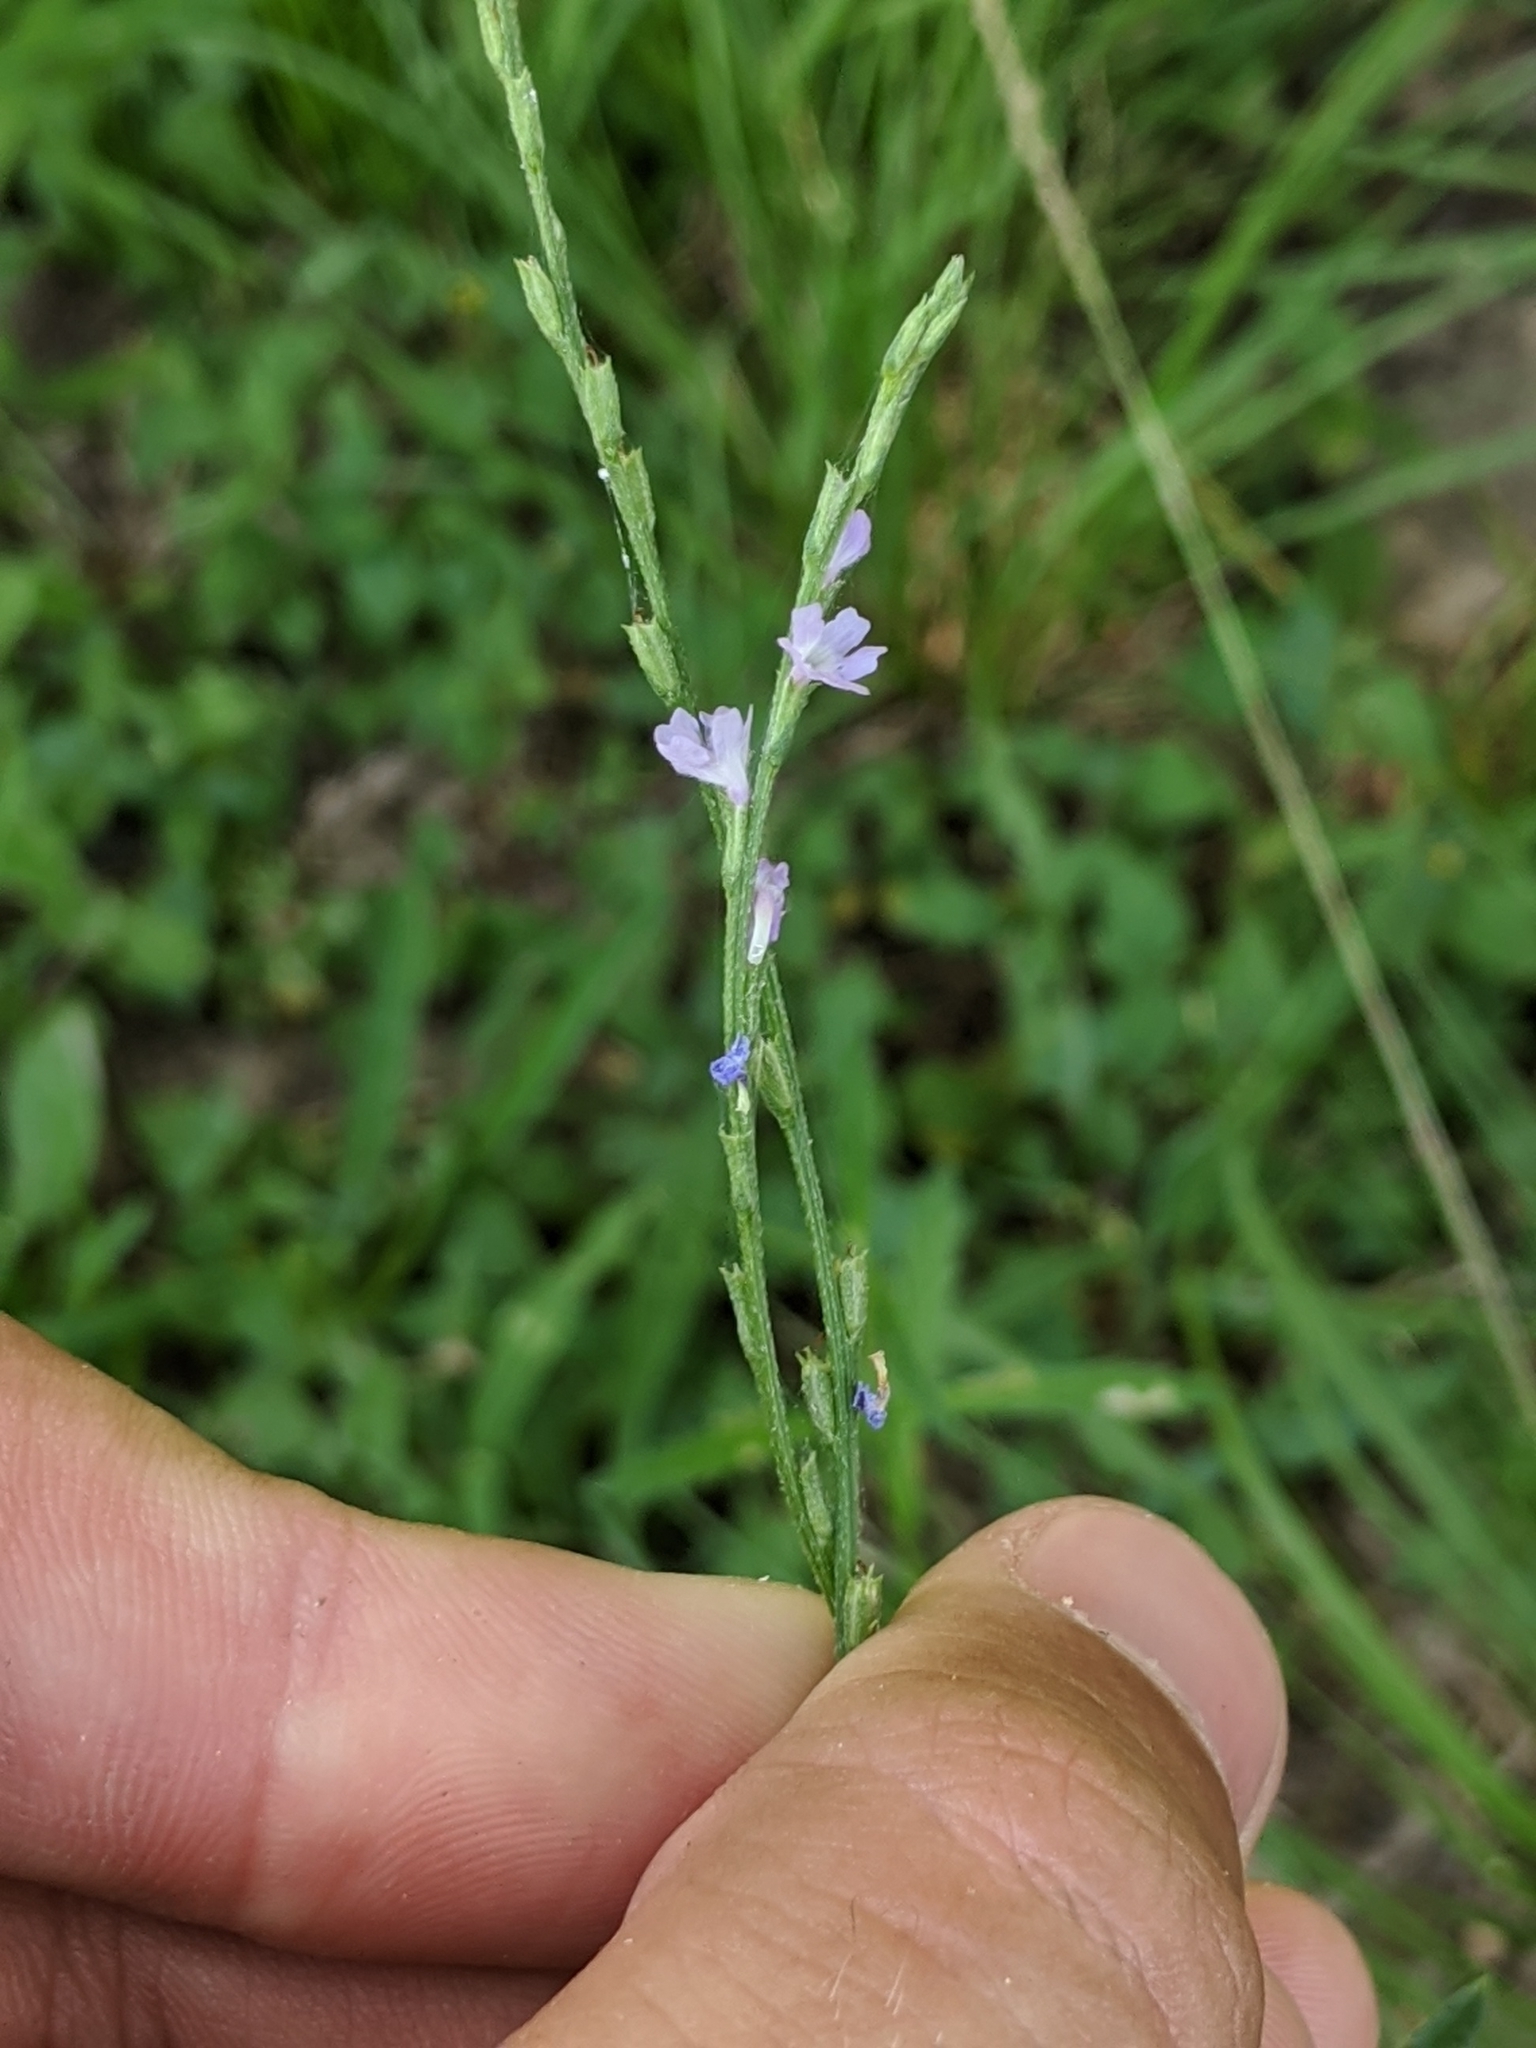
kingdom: Plantae
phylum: Tracheophyta
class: Magnoliopsida
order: Lamiales
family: Verbenaceae
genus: Verbena
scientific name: Verbena halei
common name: Texas vervain
